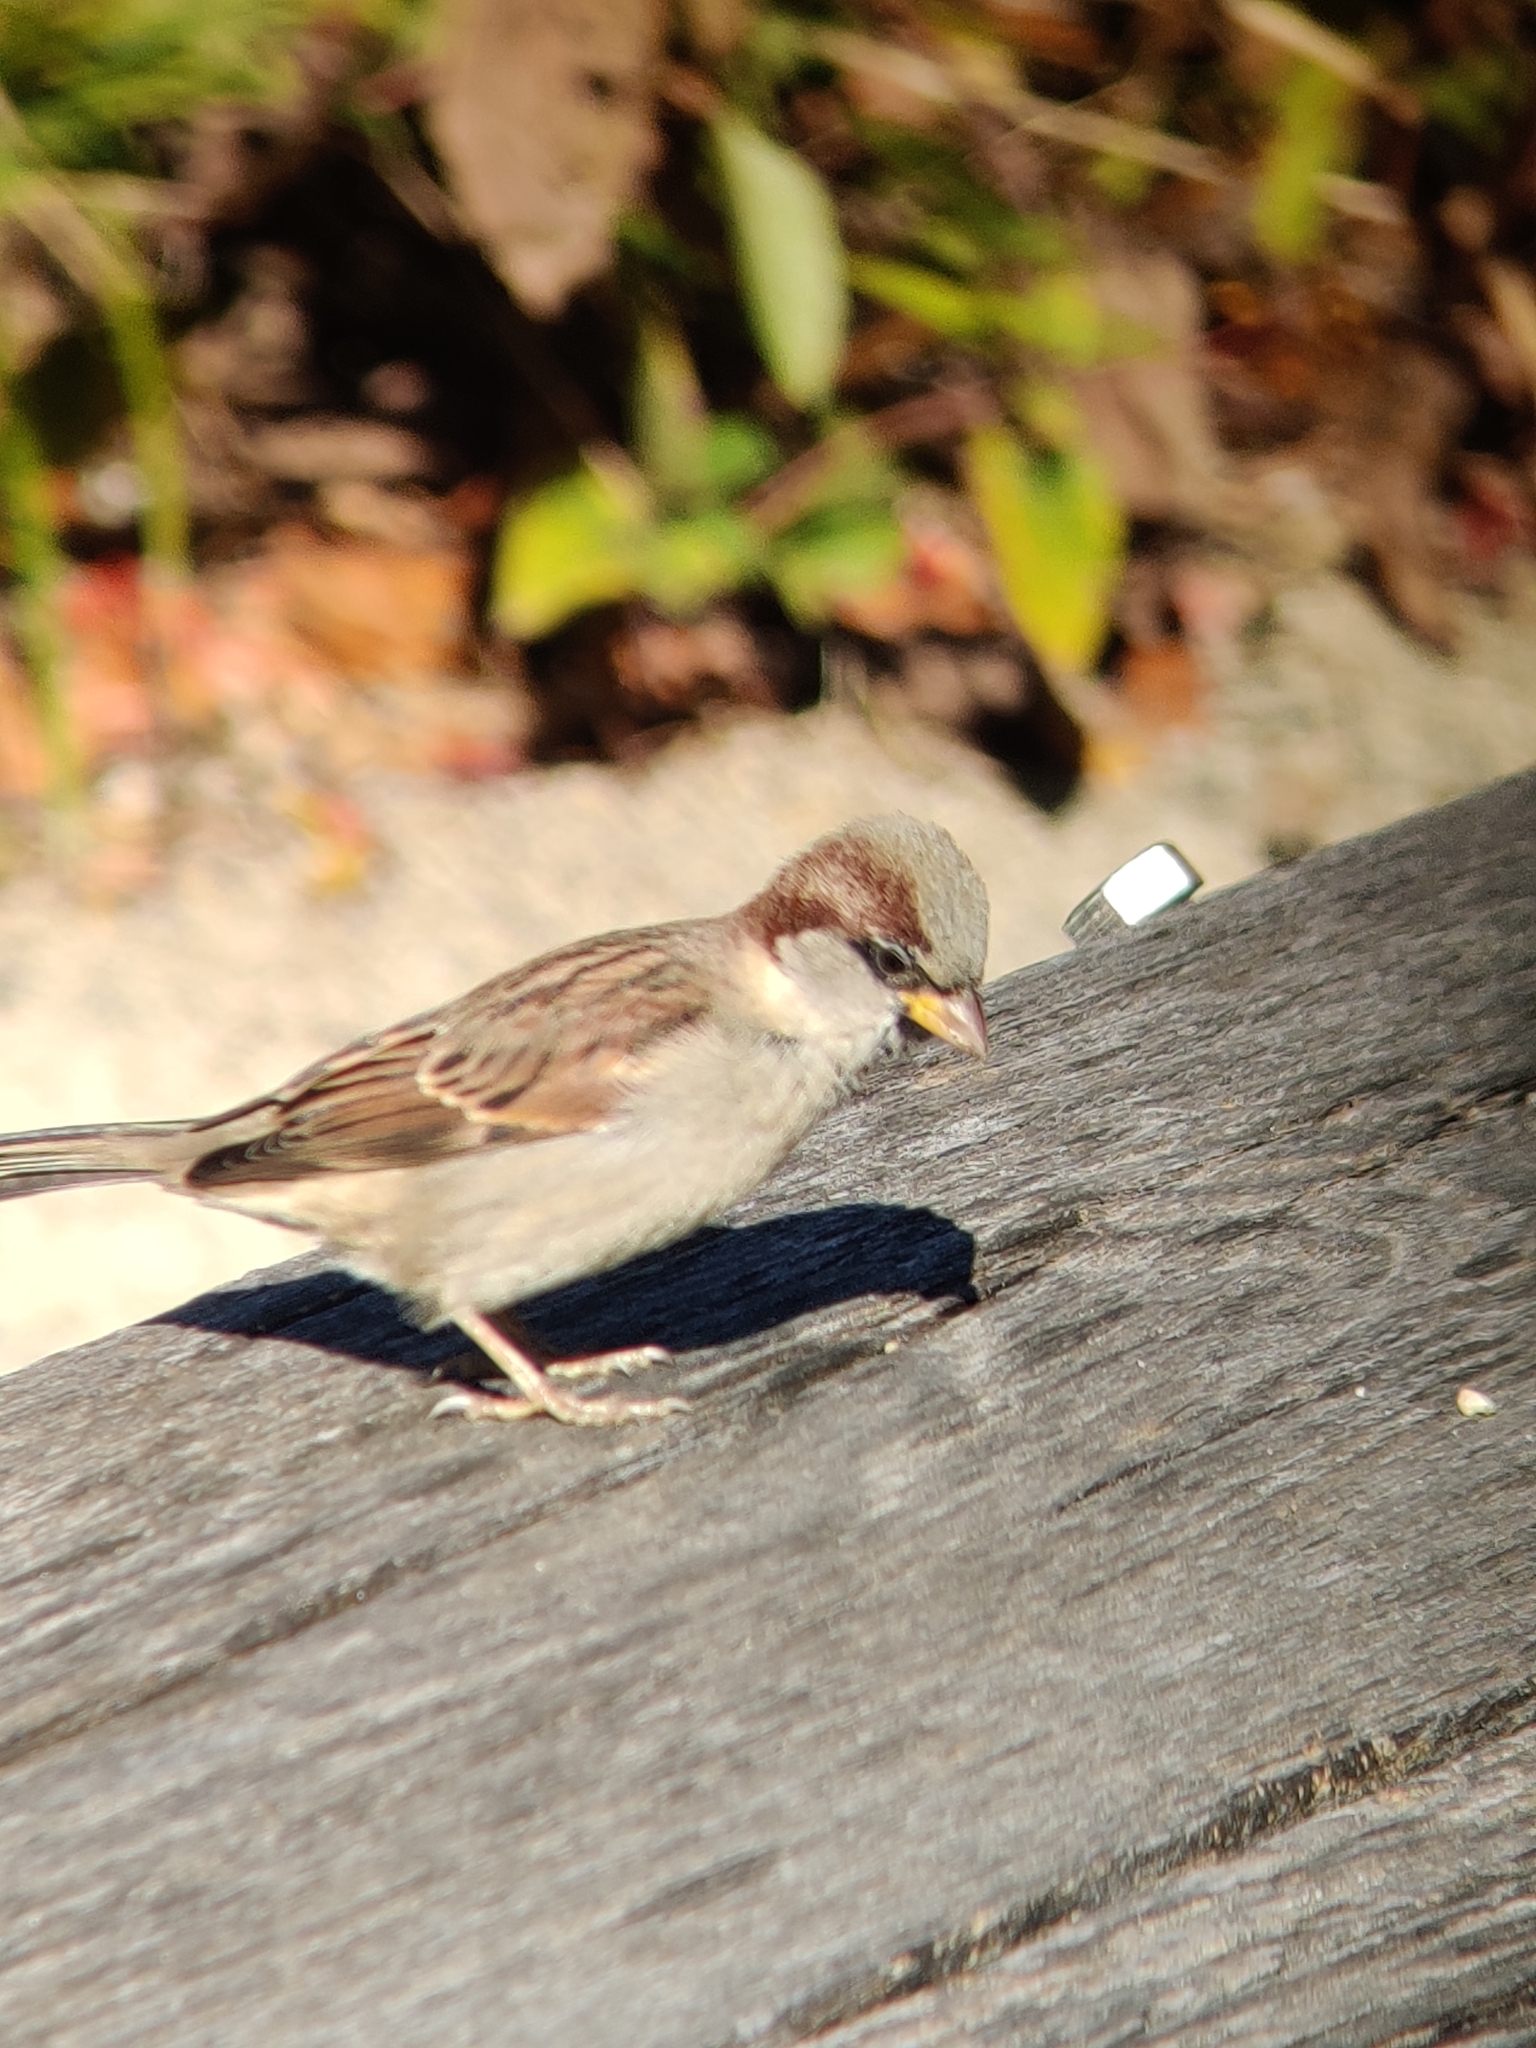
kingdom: Animalia
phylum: Chordata
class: Aves
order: Passeriformes
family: Passeridae
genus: Passer
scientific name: Passer domesticus
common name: House sparrow
